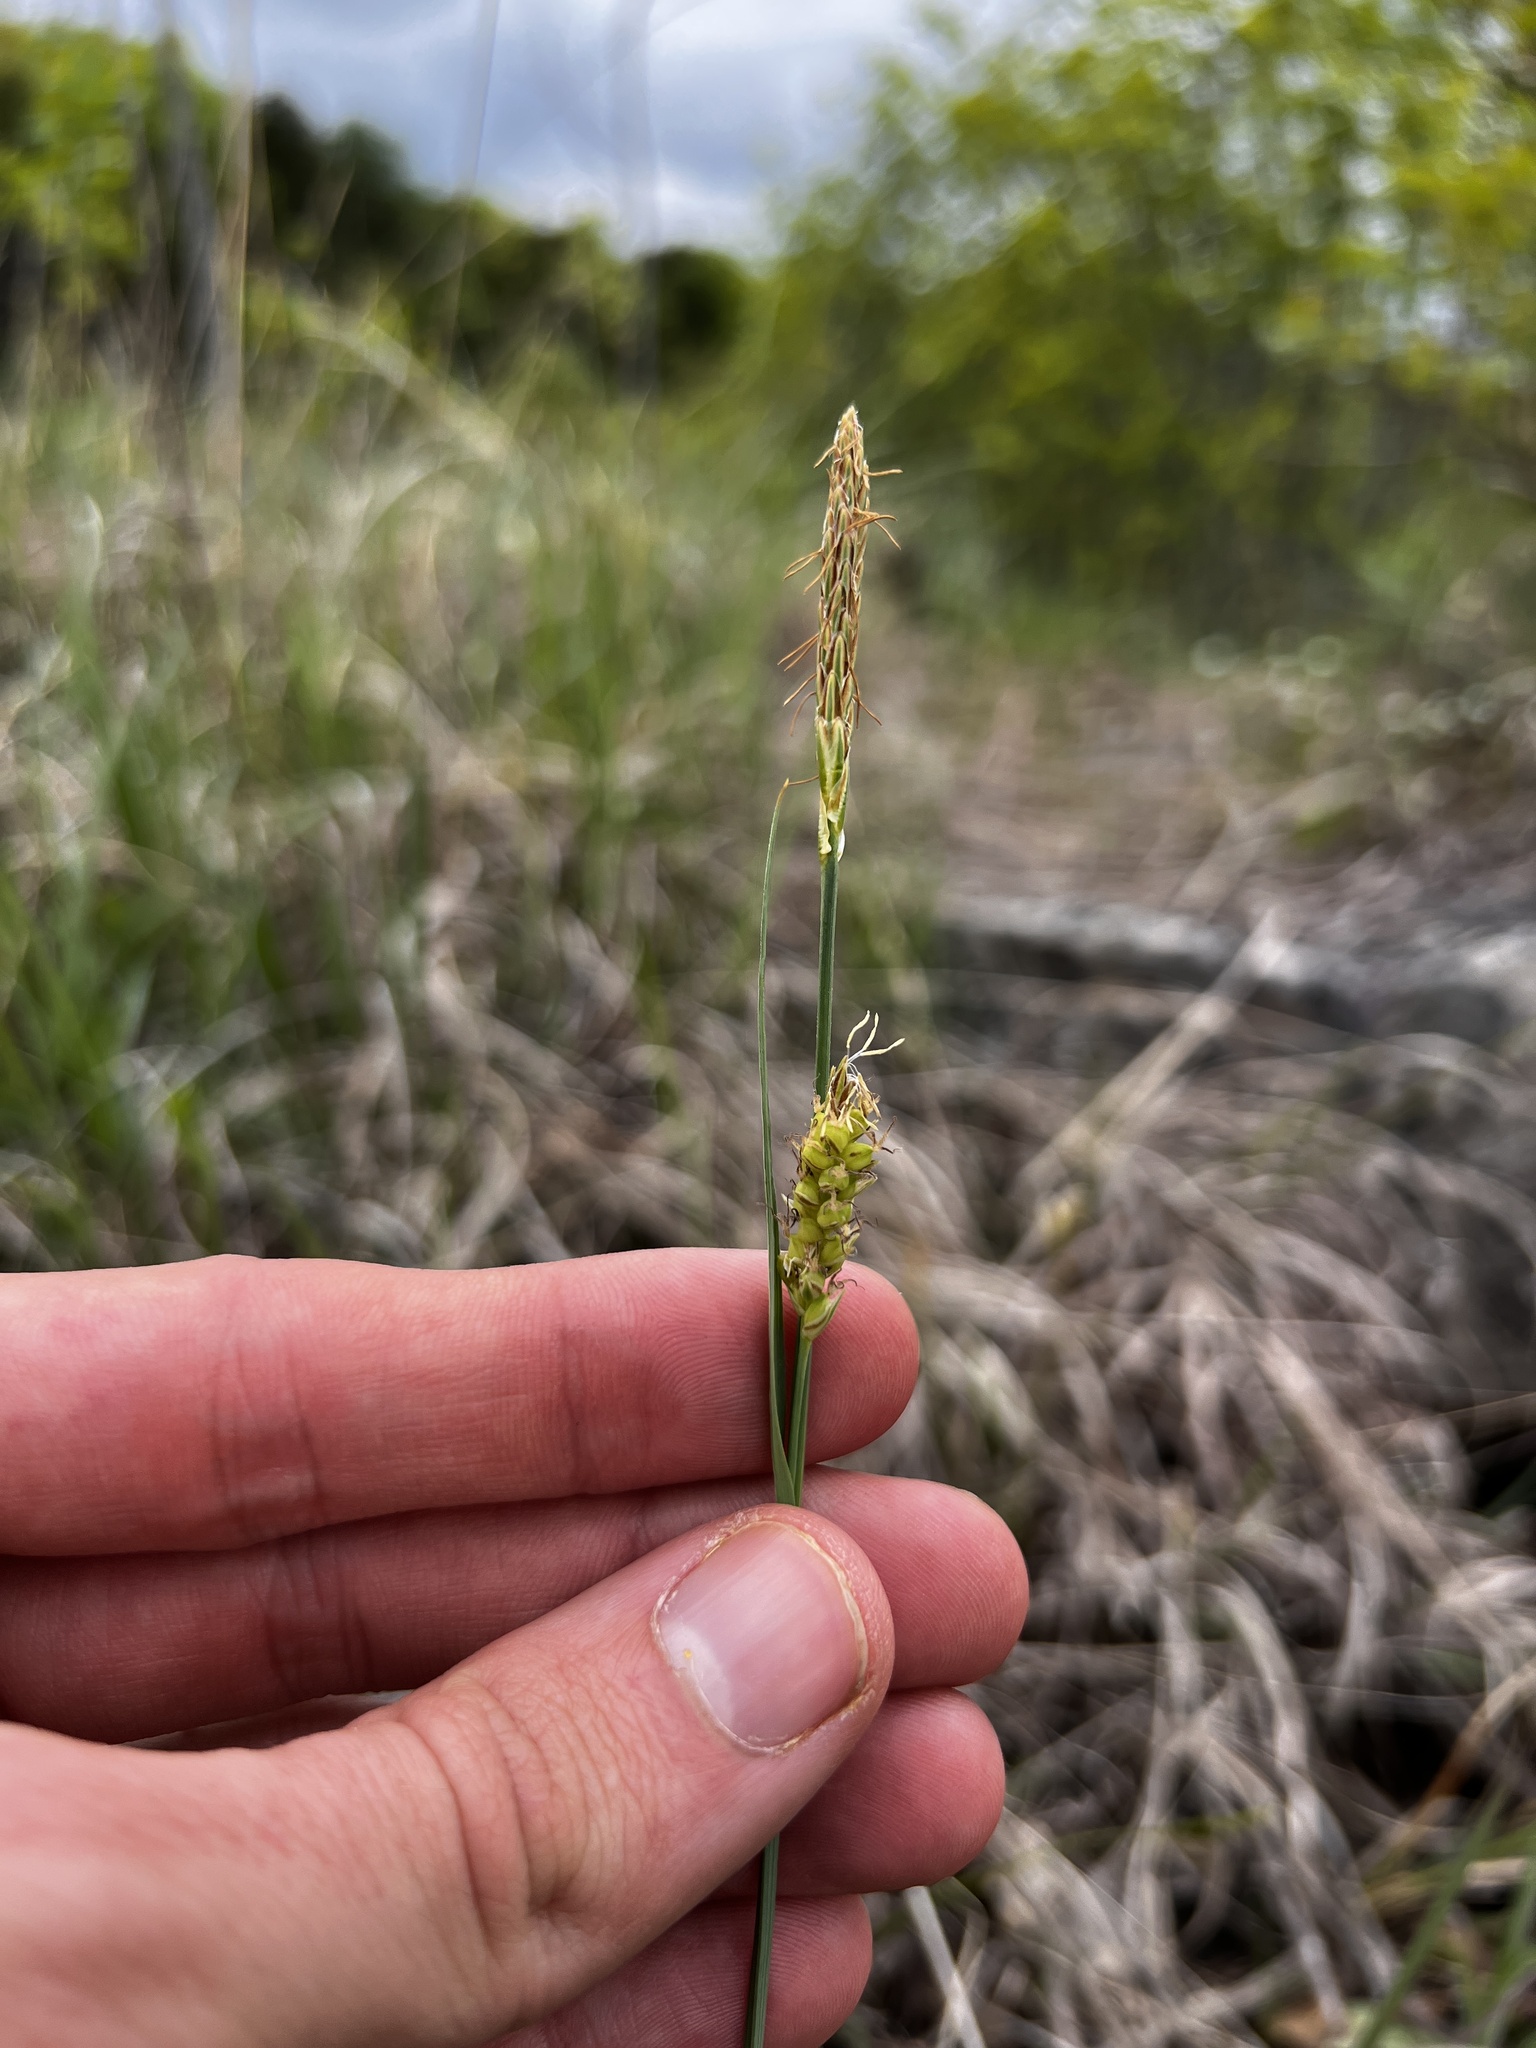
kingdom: Plantae
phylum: Tracheophyta
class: Liliopsida
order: Poales
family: Cyperaceae
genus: Carex
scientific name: Carex meadii
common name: Mead's sedge
